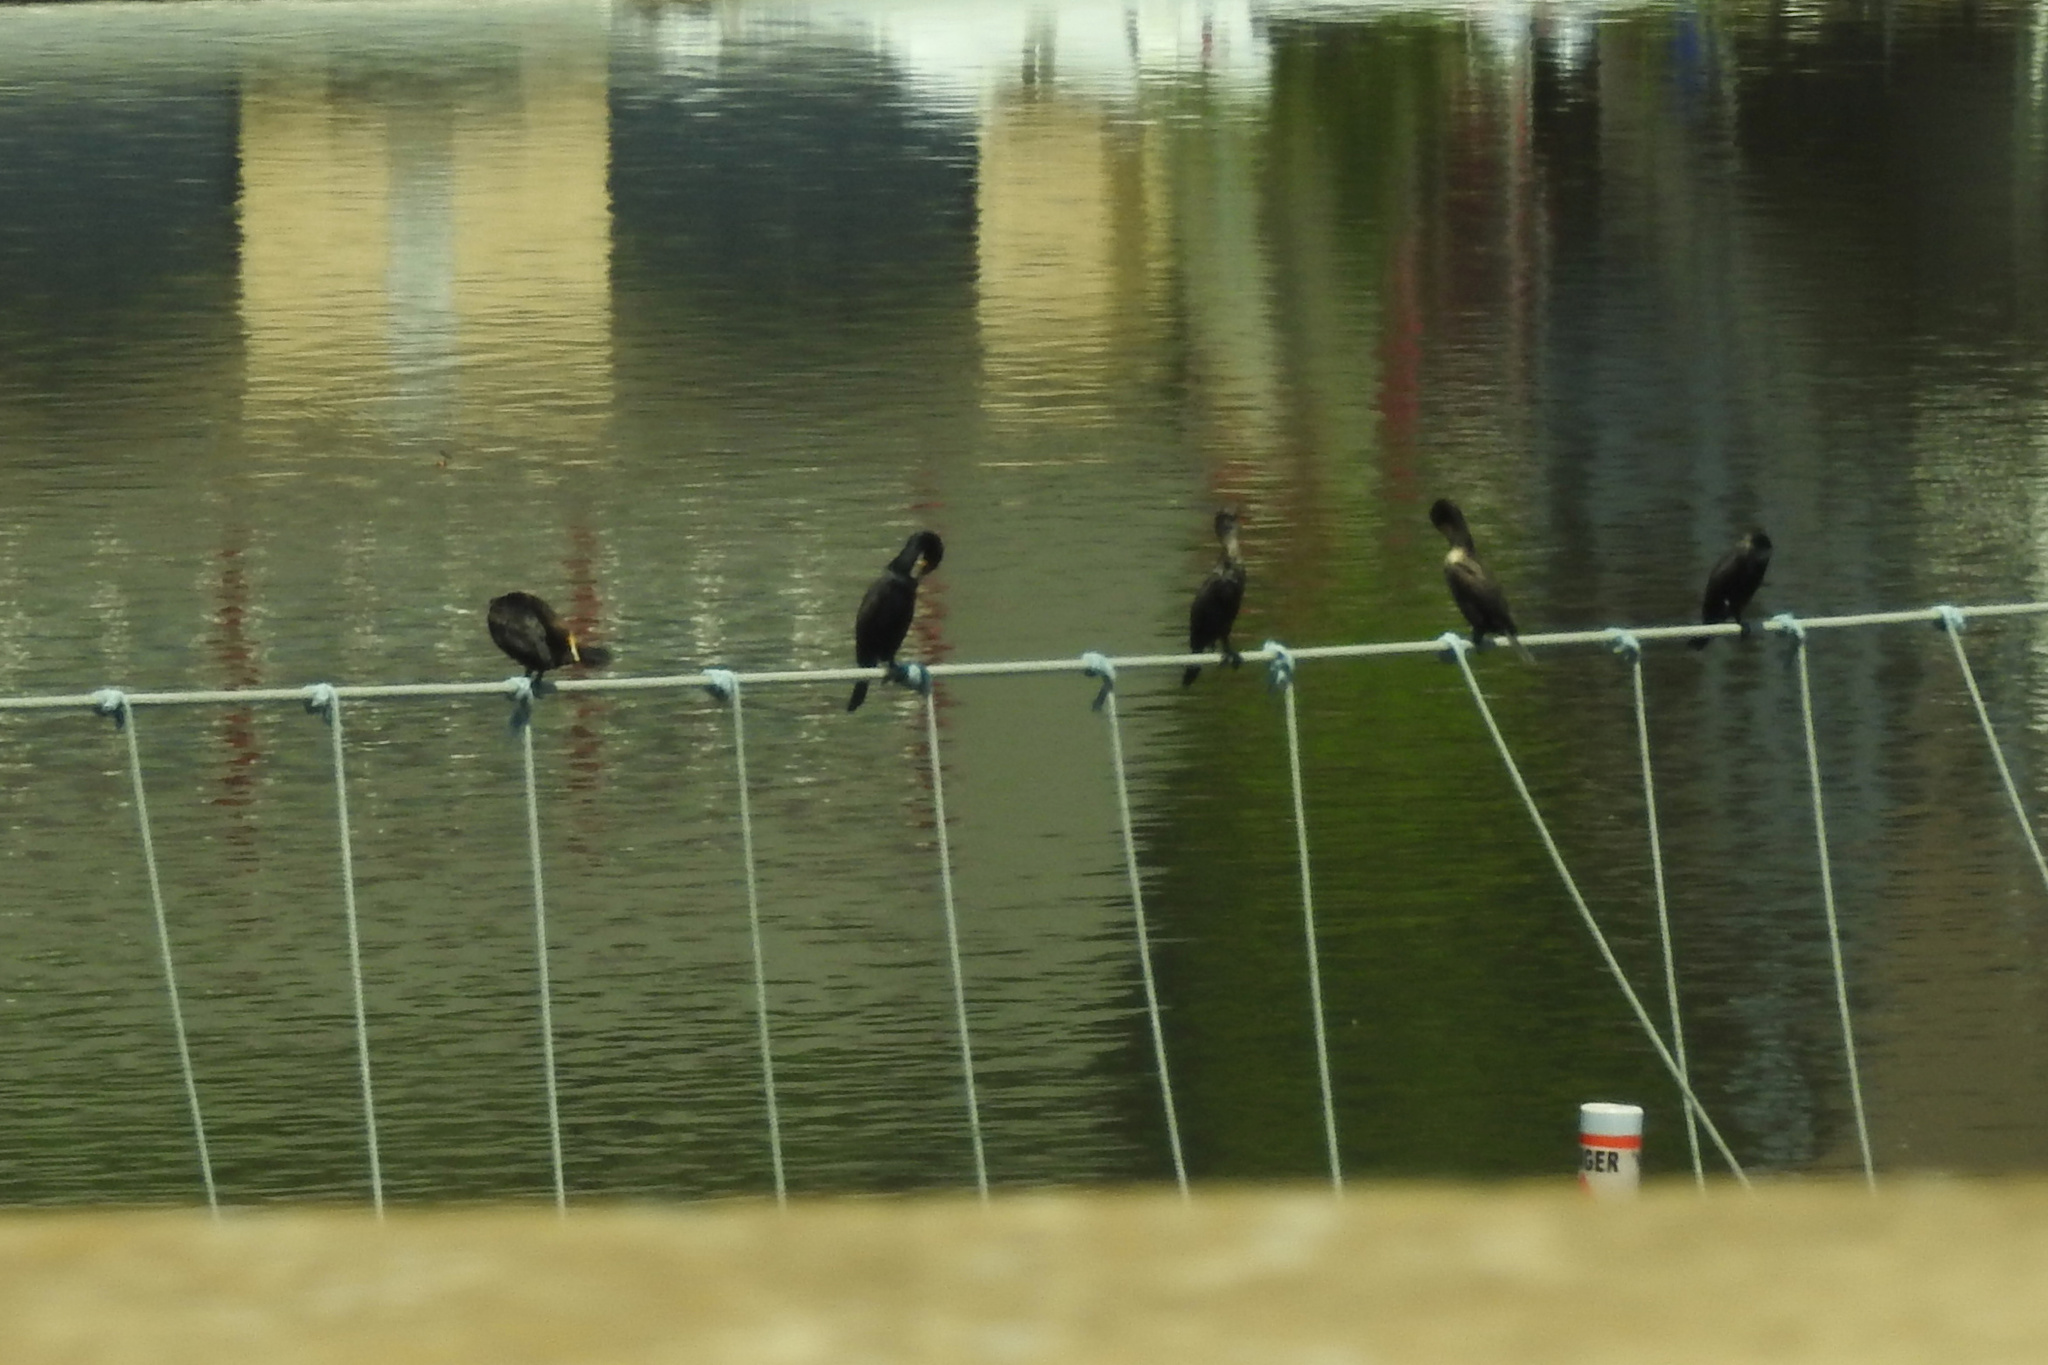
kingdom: Animalia
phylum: Chordata
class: Aves
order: Suliformes
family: Phalacrocoracidae
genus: Phalacrocorax
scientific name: Phalacrocorax auritus
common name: Double-crested cormorant
